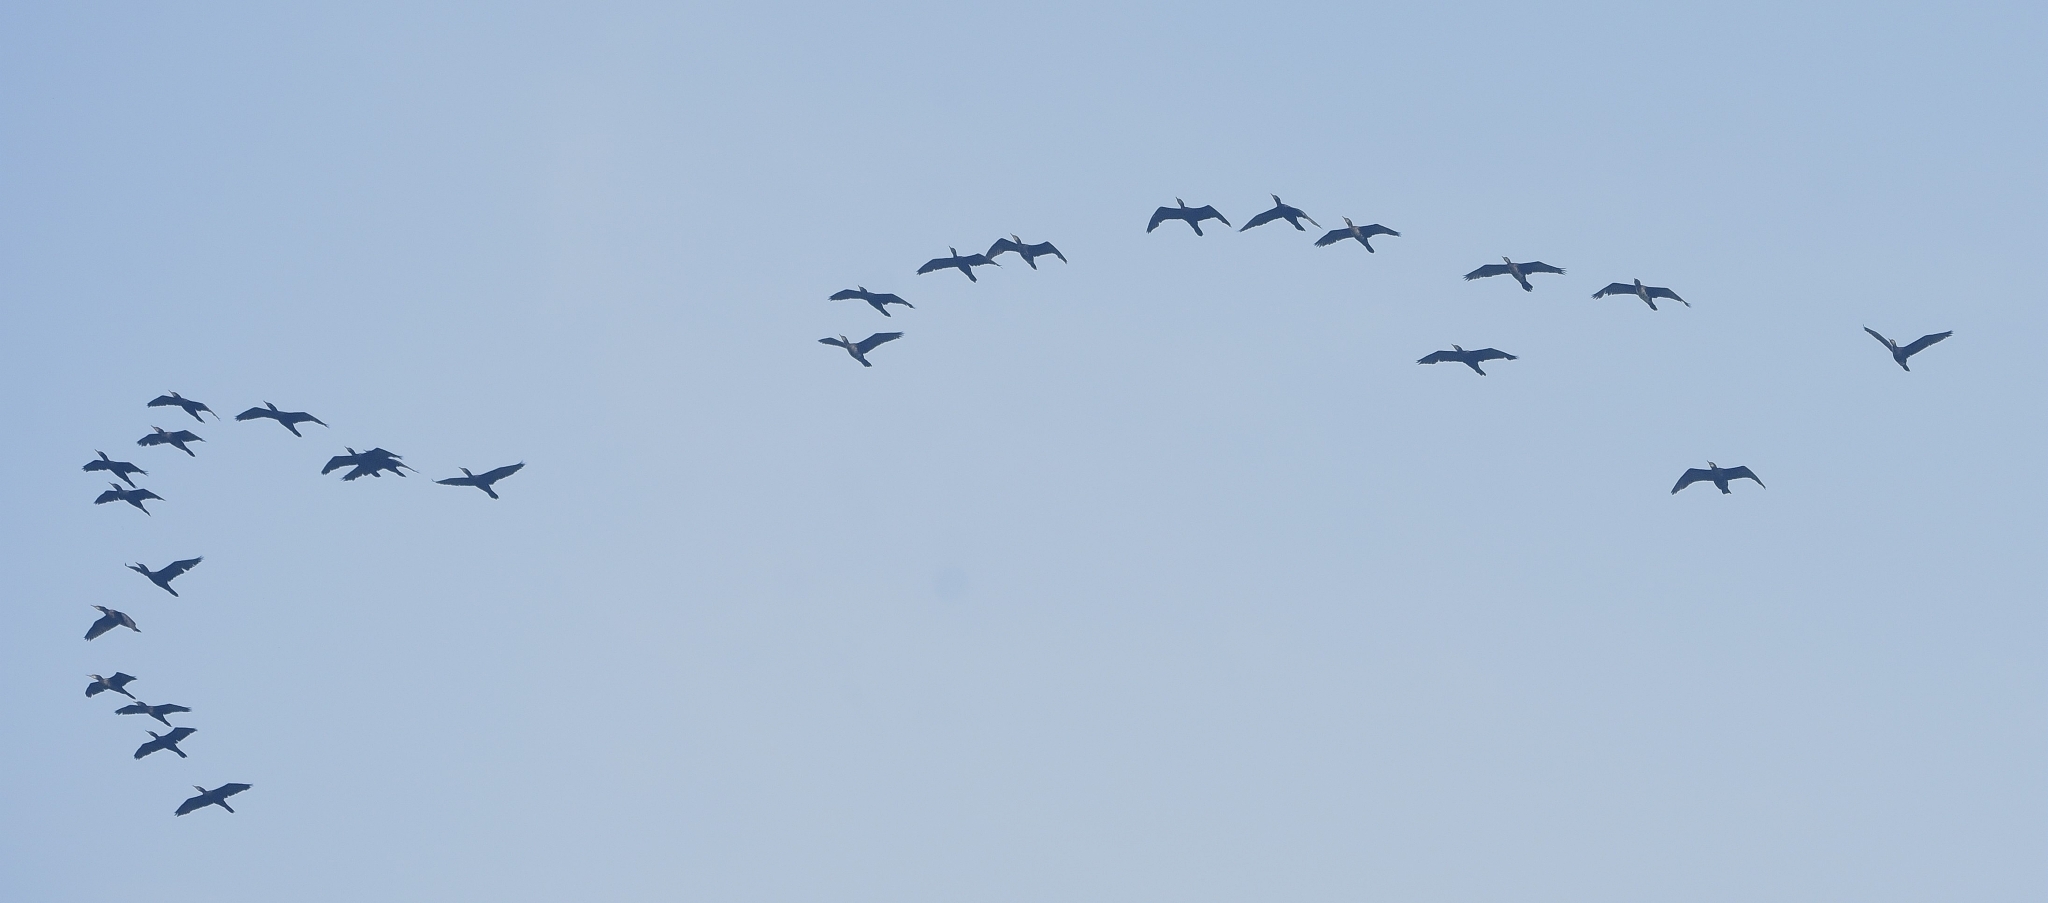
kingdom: Animalia
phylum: Chordata
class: Aves
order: Suliformes
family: Phalacrocoracidae
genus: Phalacrocorax
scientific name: Phalacrocorax fuscicollis
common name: Indian cormorant
